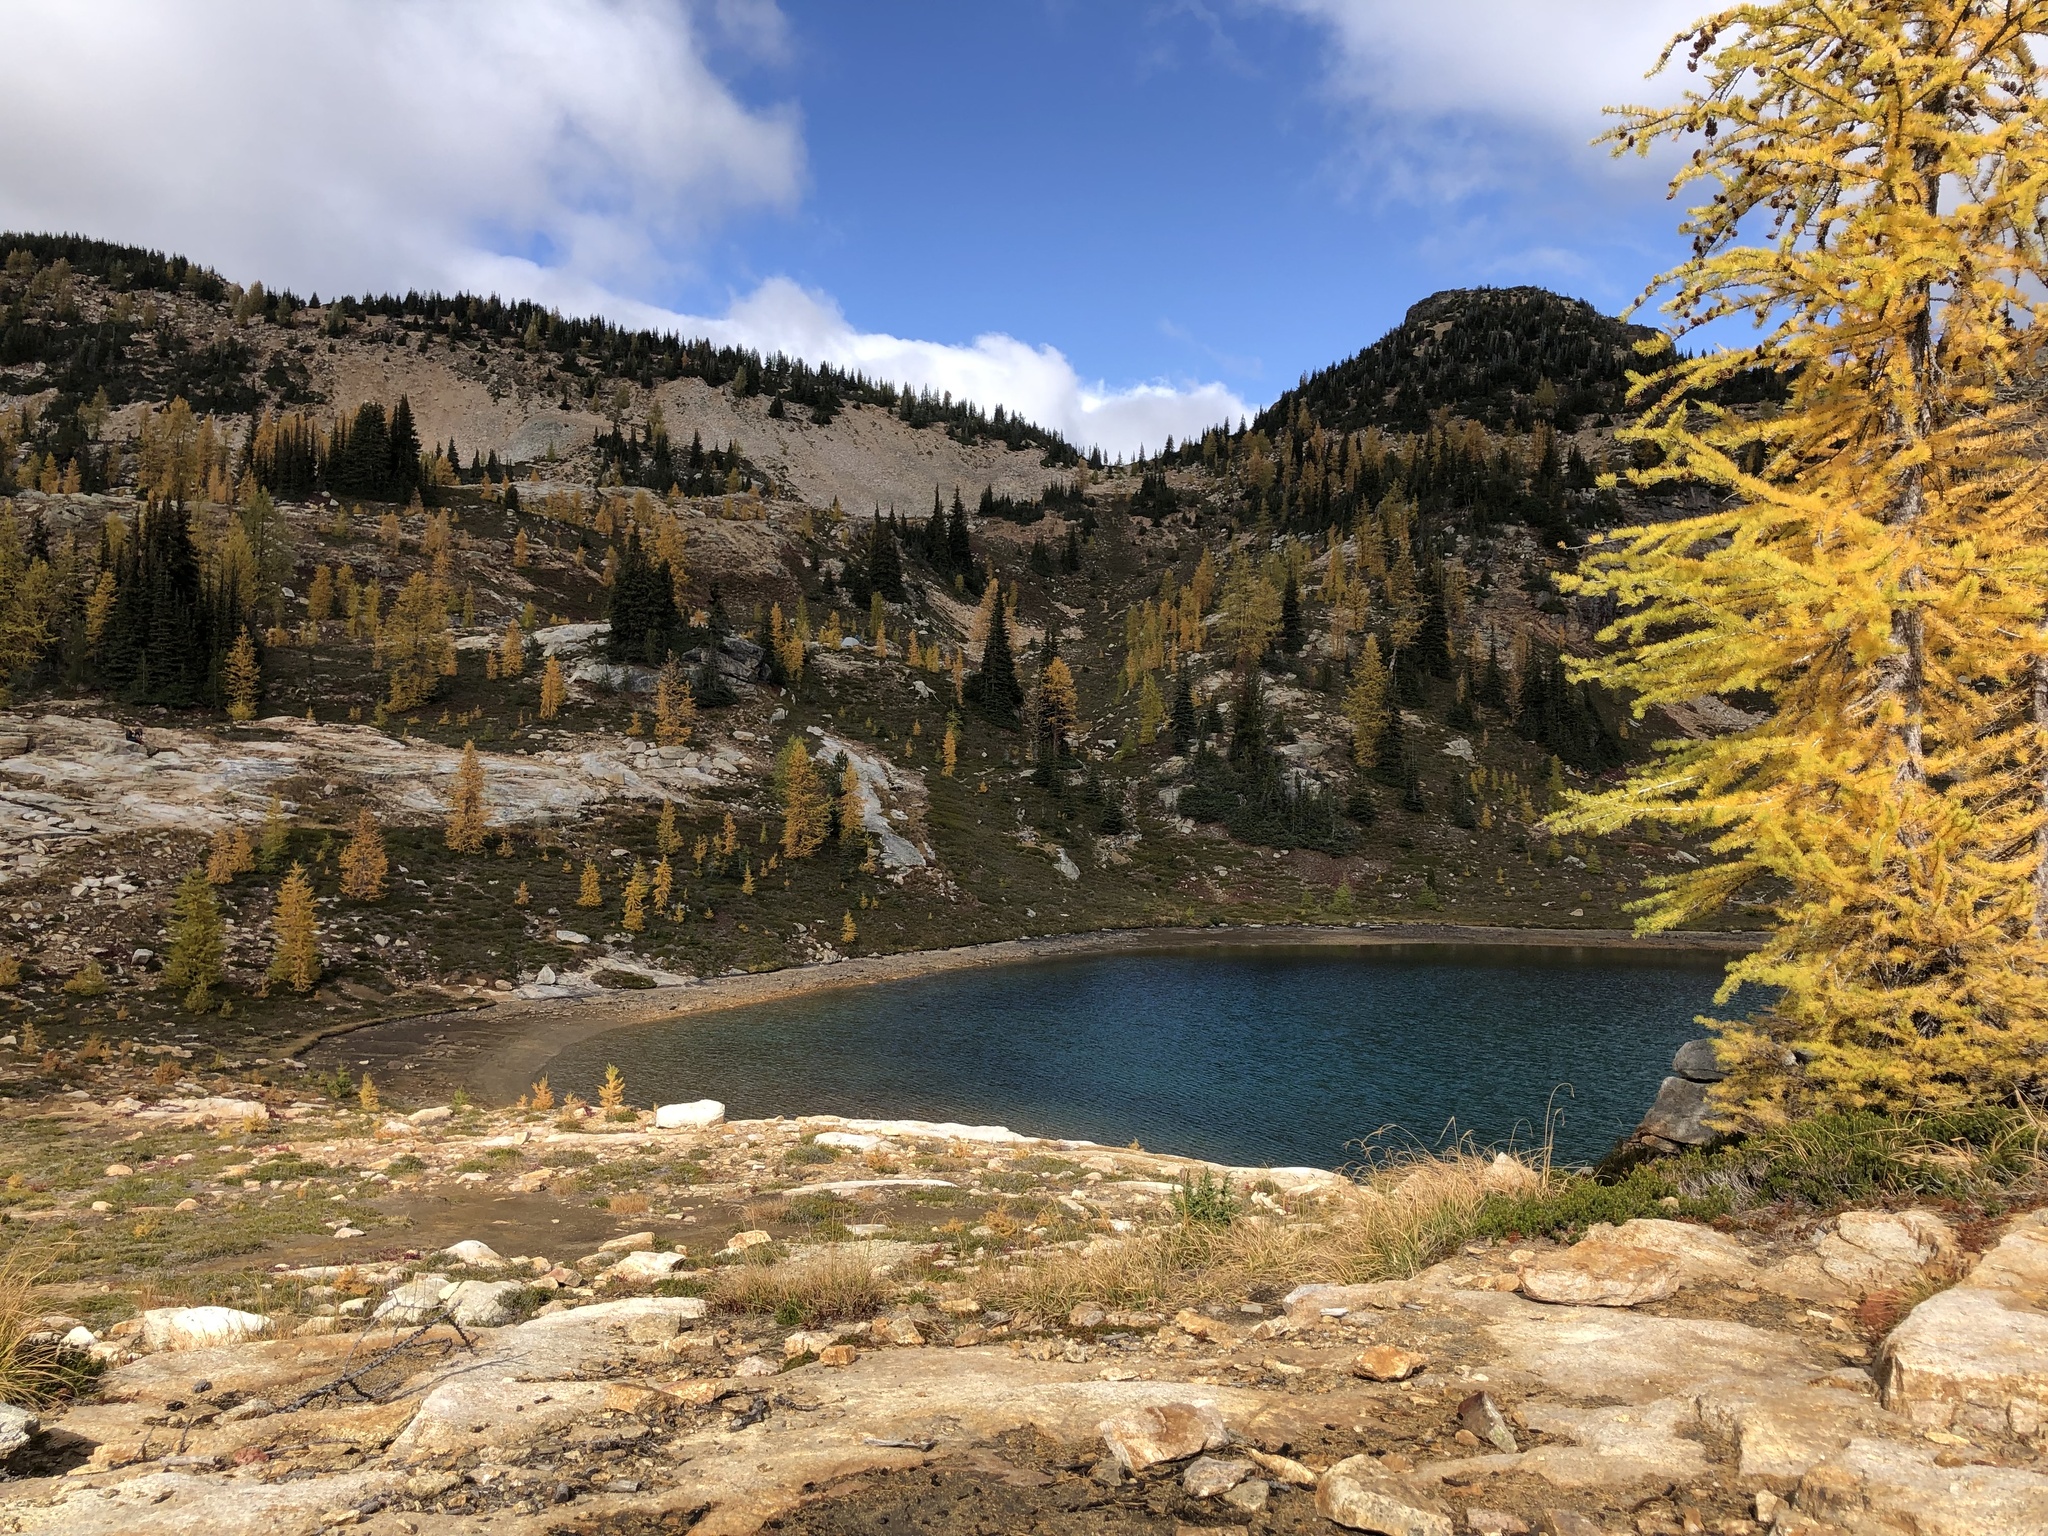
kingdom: Plantae
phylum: Tracheophyta
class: Pinopsida
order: Pinales
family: Pinaceae
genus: Larix
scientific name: Larix lyallii
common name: Alpine larch
